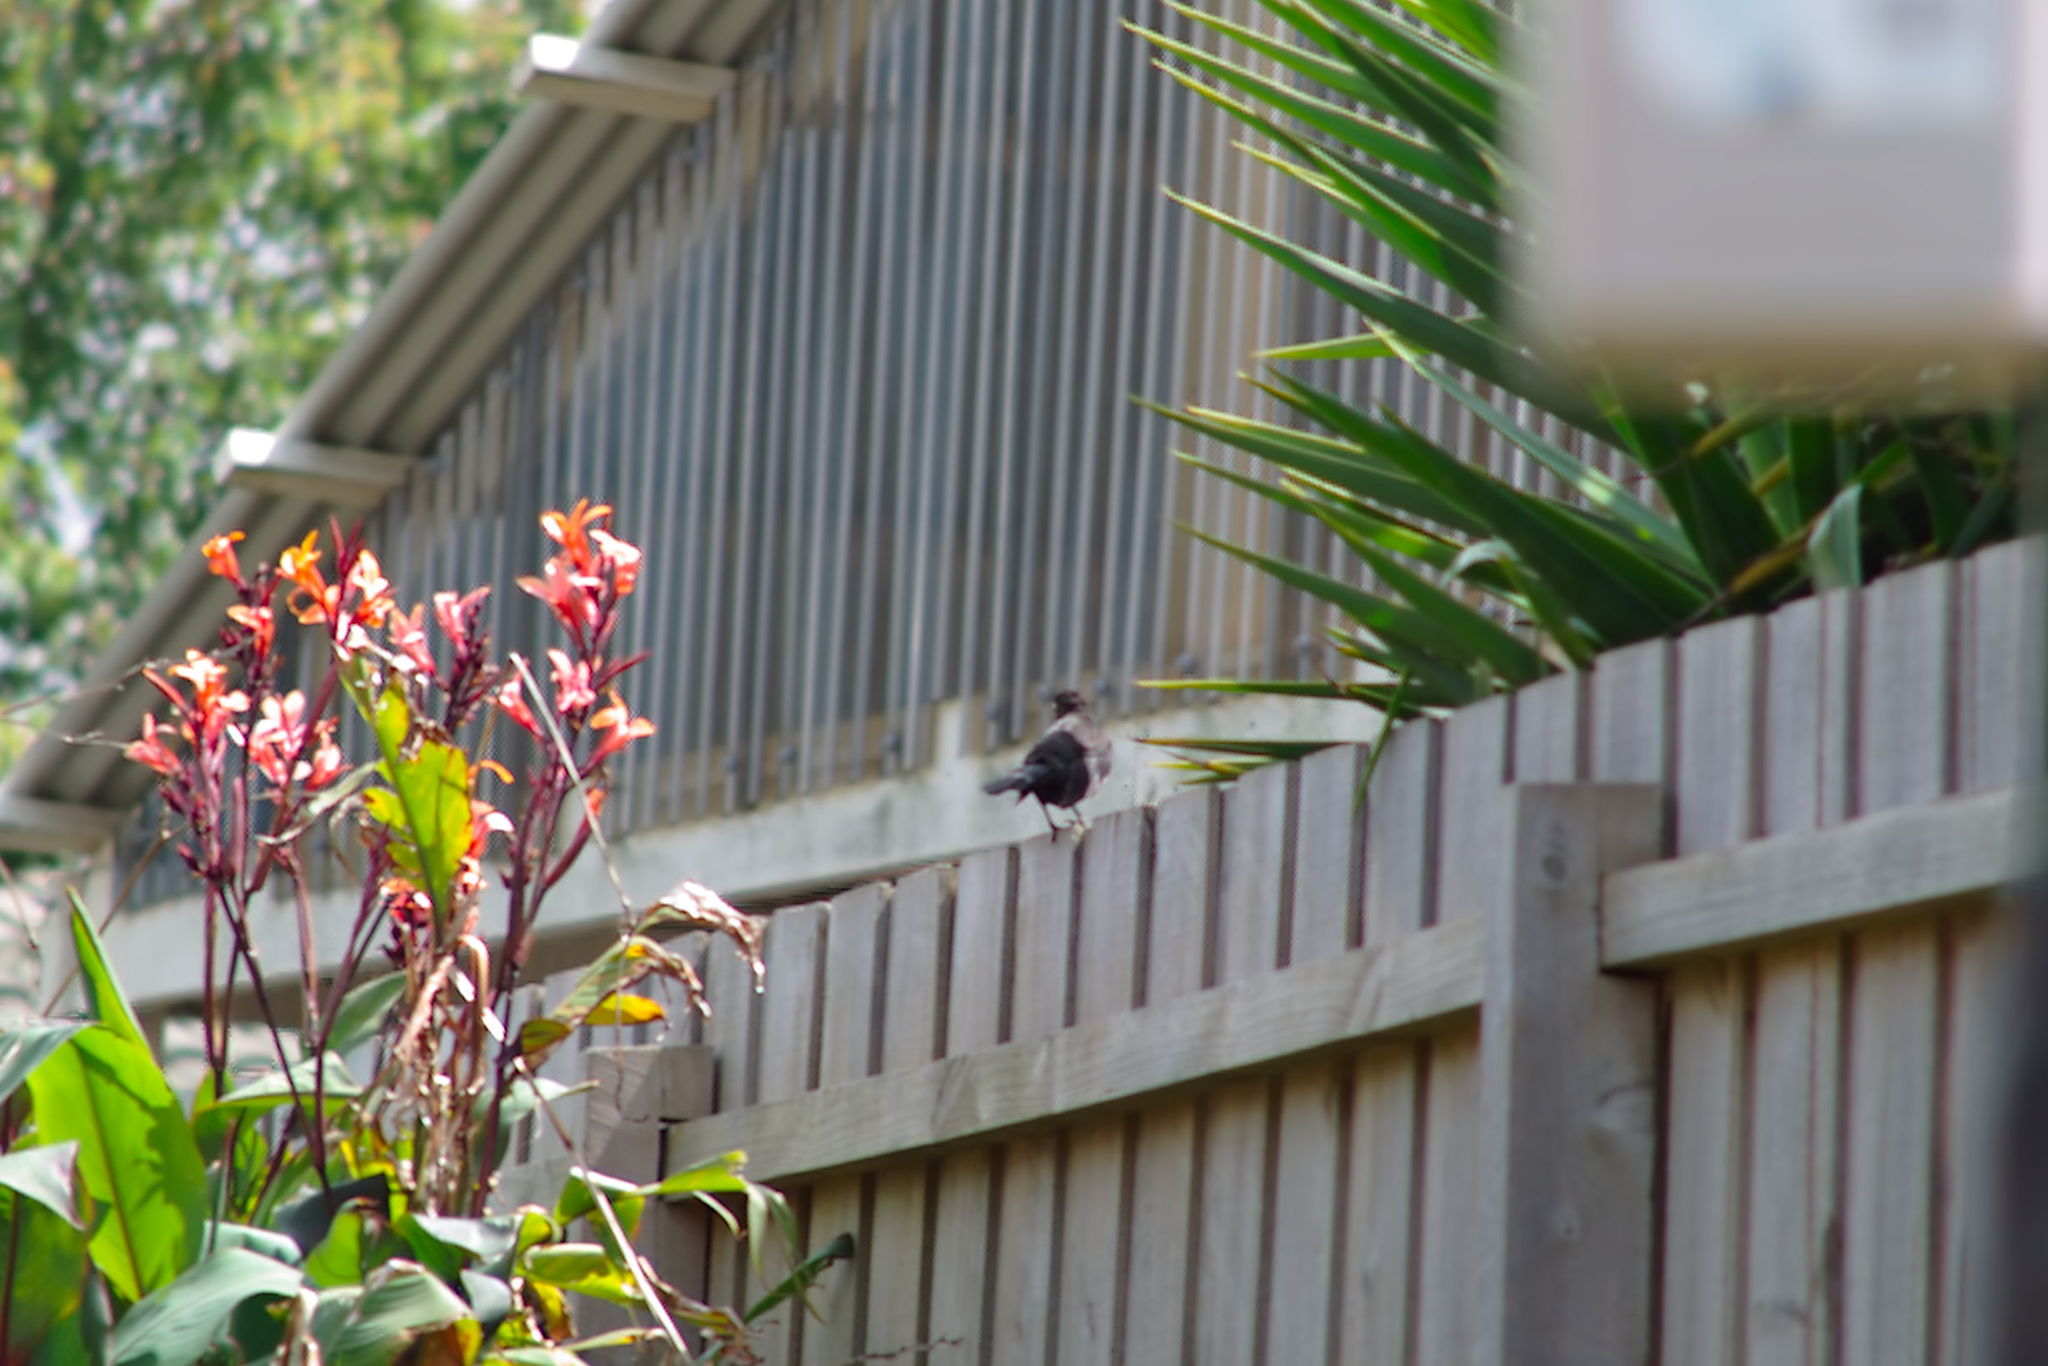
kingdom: Animalia
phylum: Chordata
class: Aves
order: Passeriformes
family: Turdidae
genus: Turdus
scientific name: Turdus merula
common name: Common blackbird
